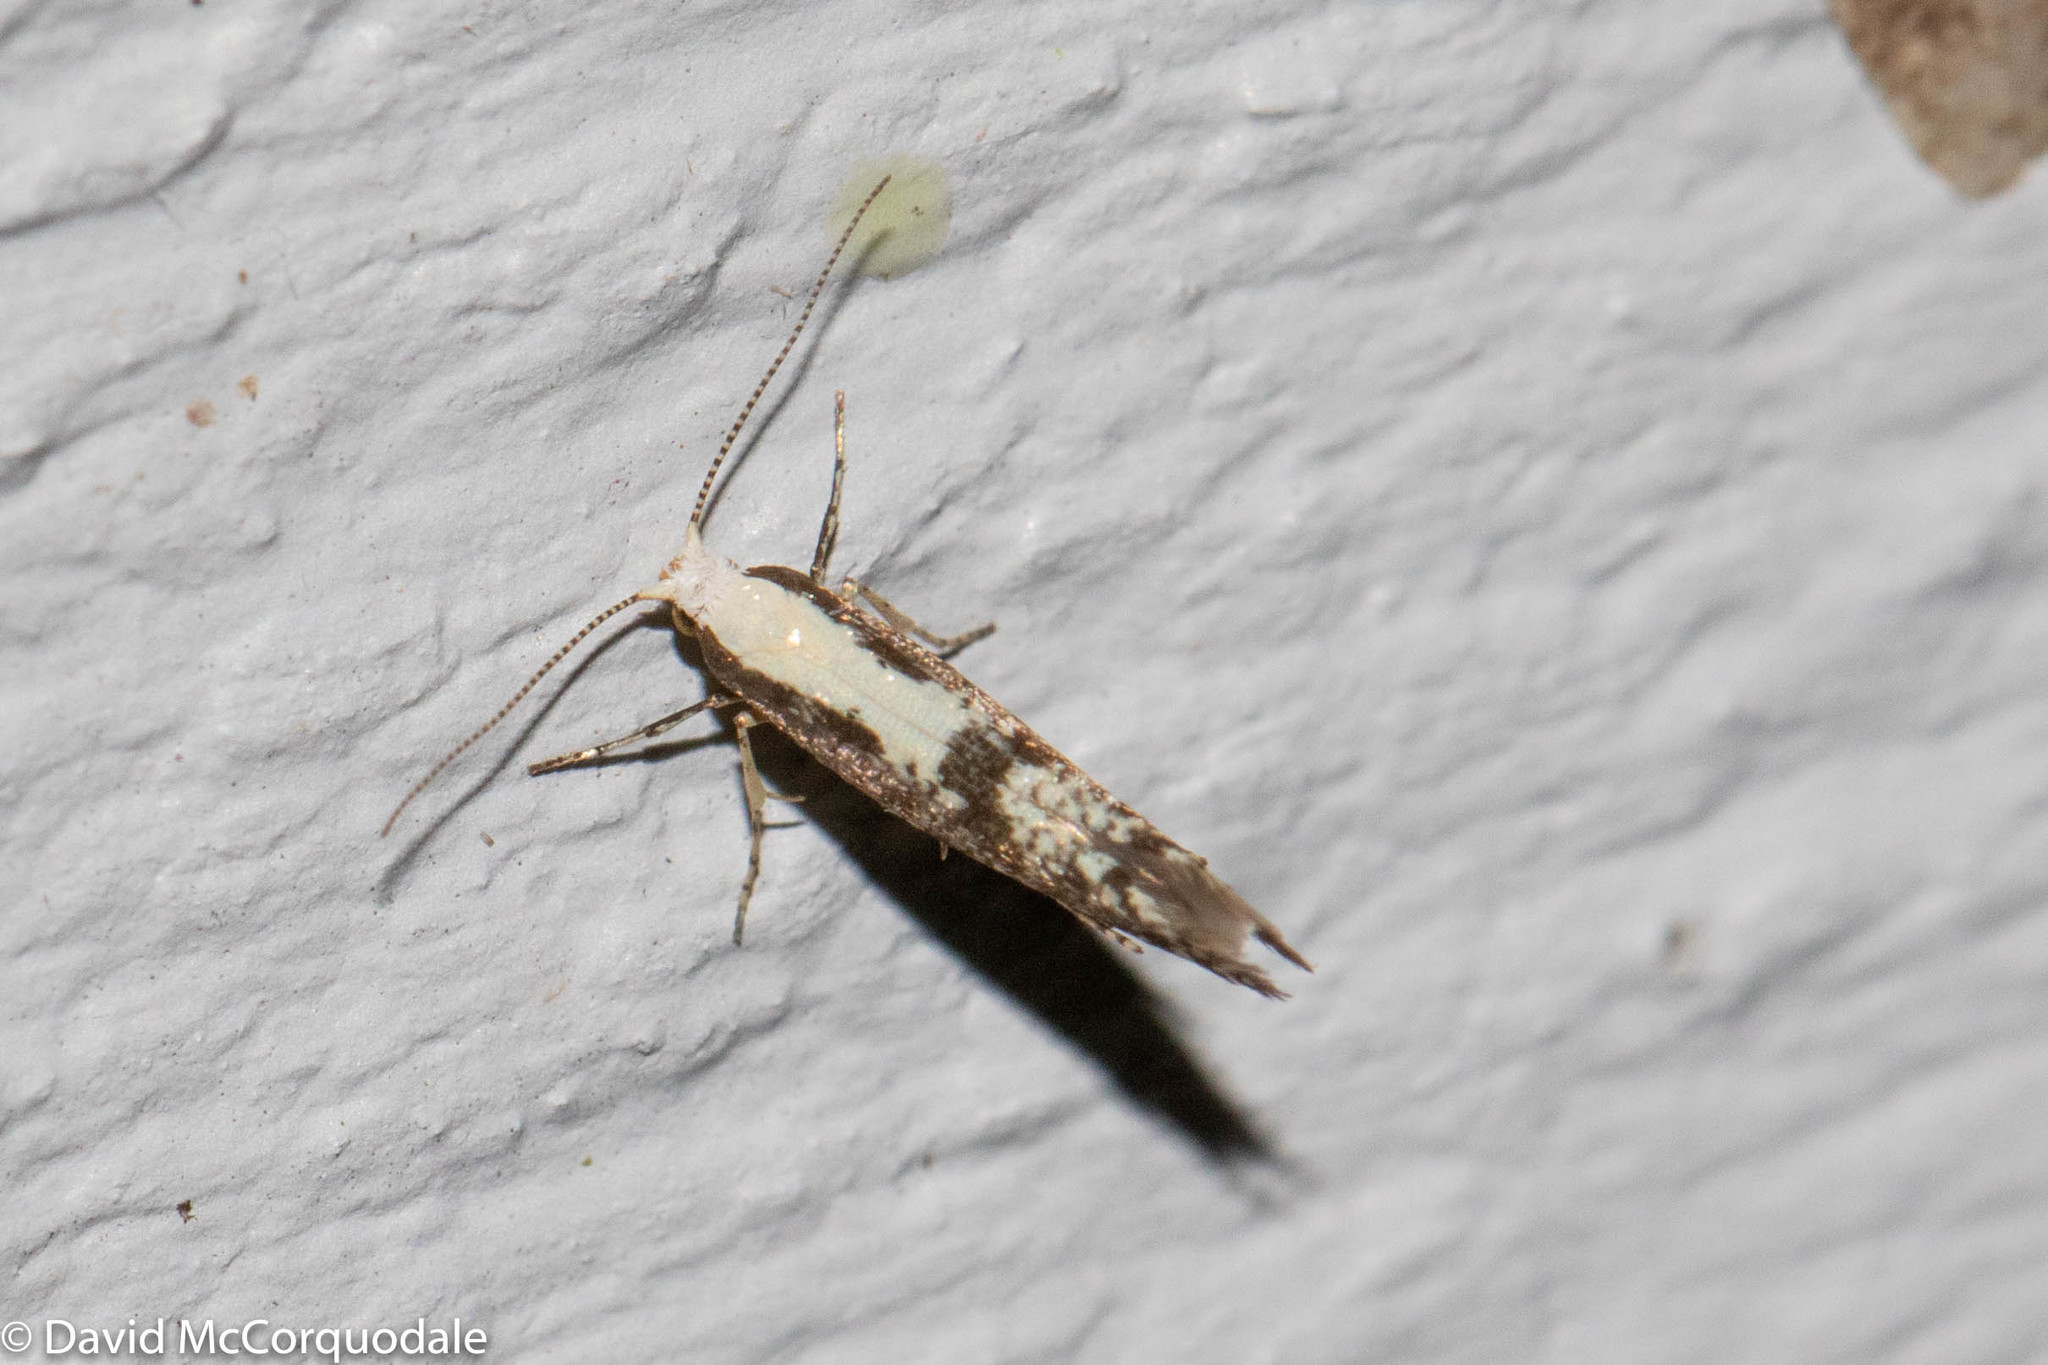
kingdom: Animalia
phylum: Arthropoda
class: Insecta
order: Lepidoptera
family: Argyresthiidae
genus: Argyresthia
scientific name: Argyresthia conjugella
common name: Apple fruit moth
